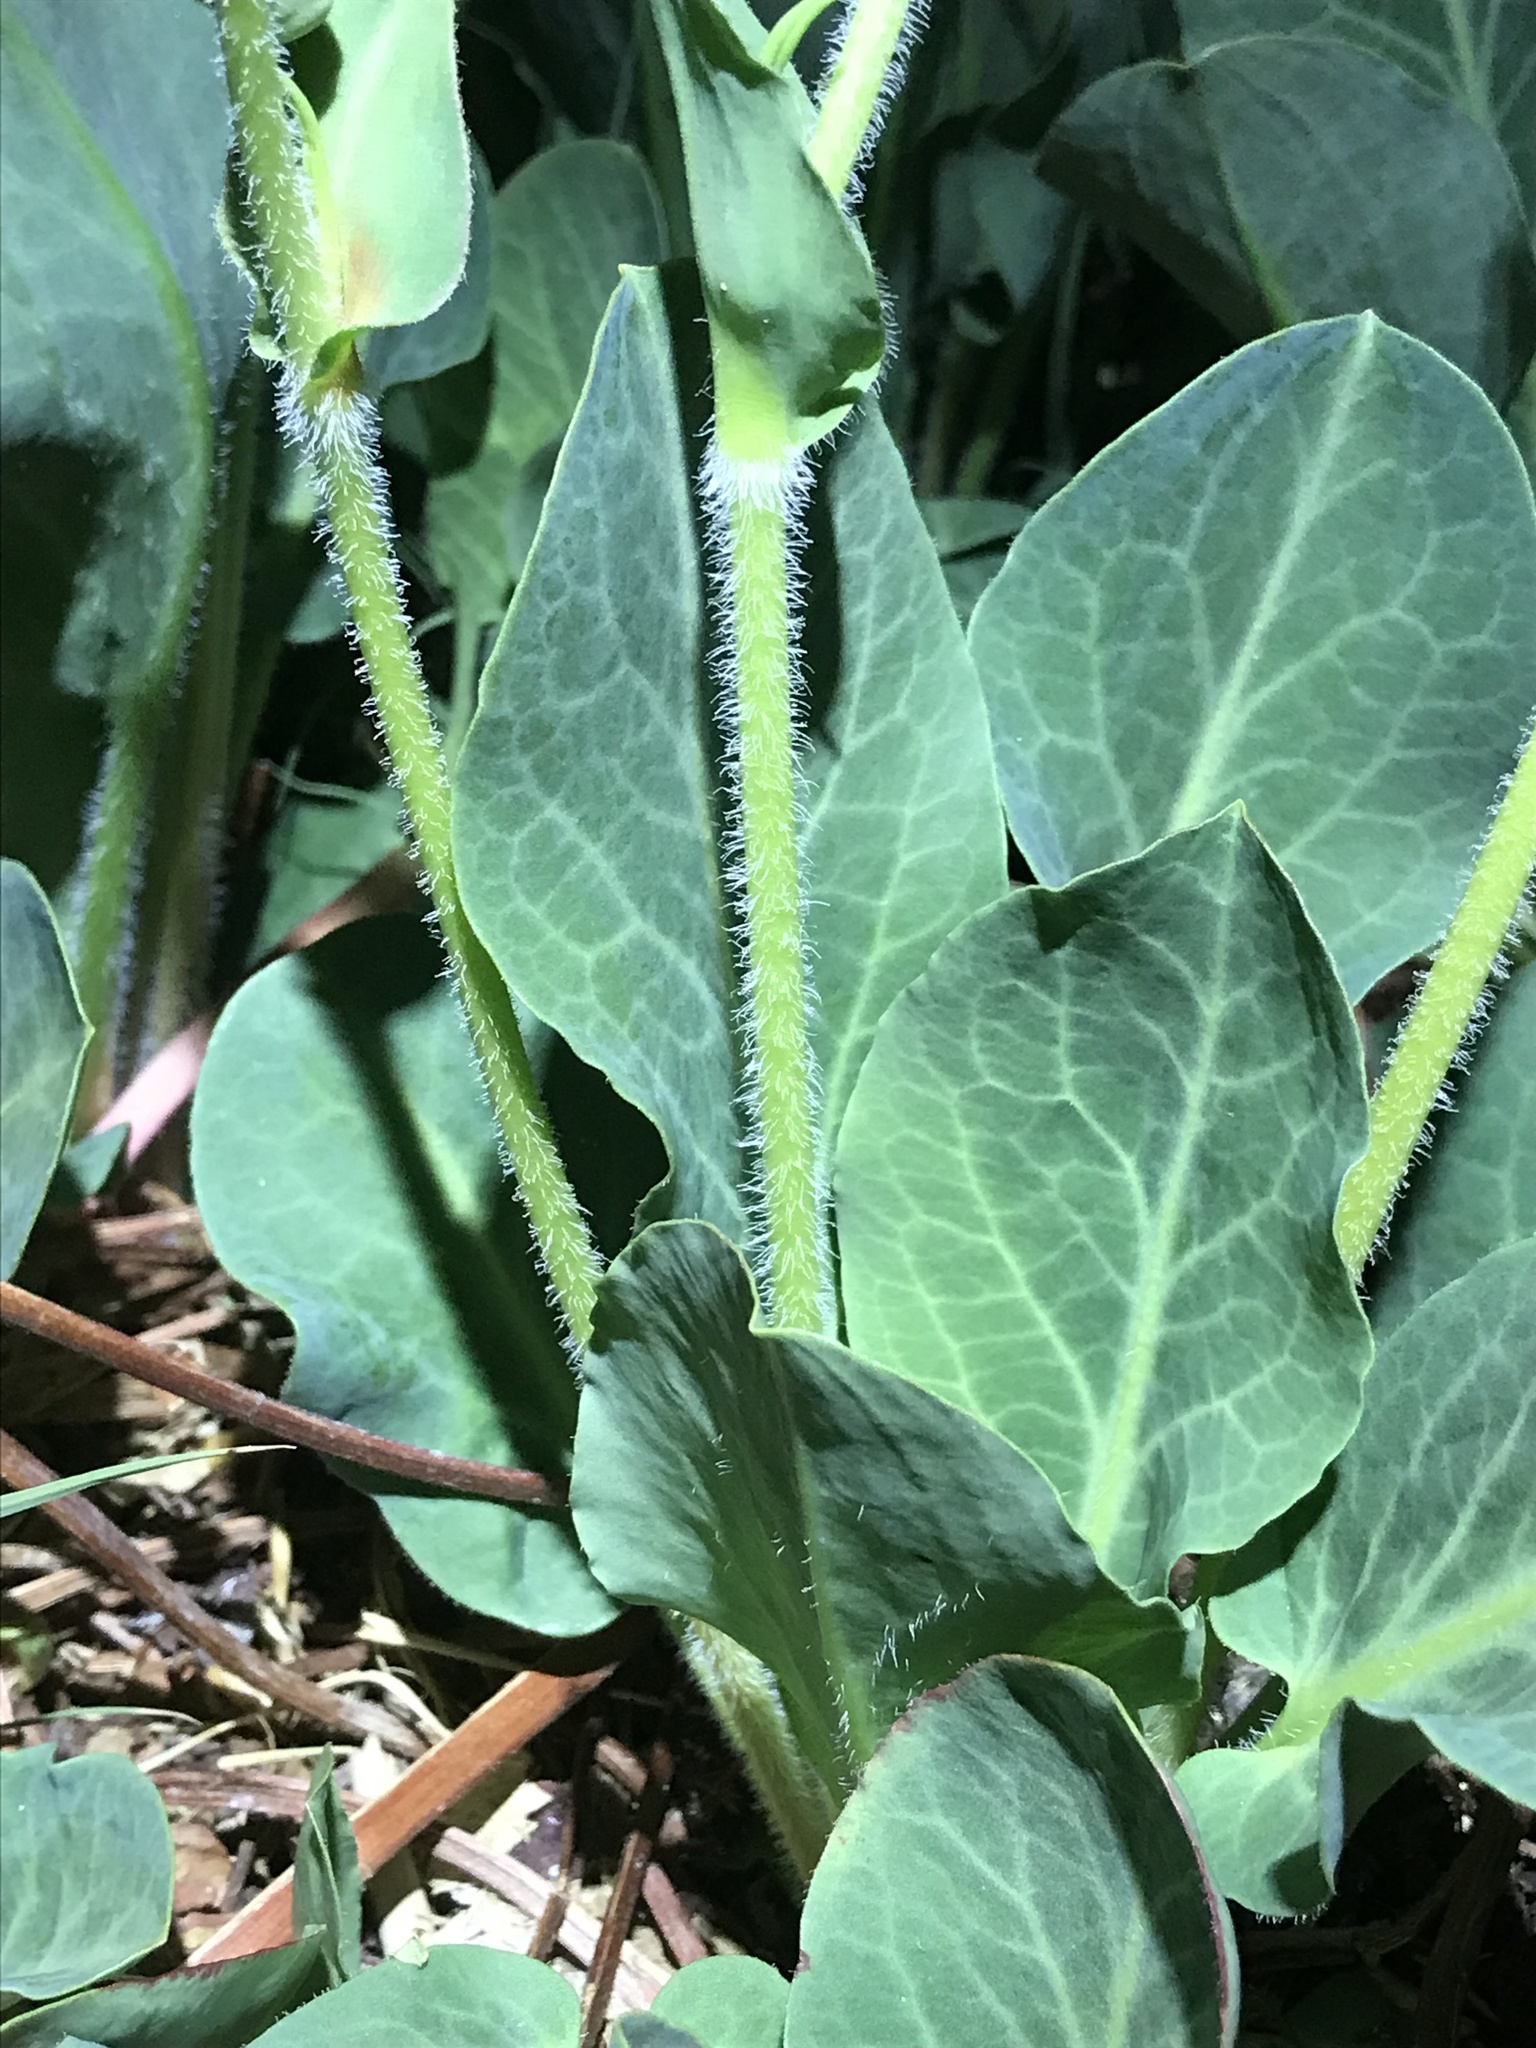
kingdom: Plantae
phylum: Tracheophyta
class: Magnoliopsida
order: Piperales
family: Saururaceae
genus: Anemopsis
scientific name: Anemopsis californica
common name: Apache-beads
